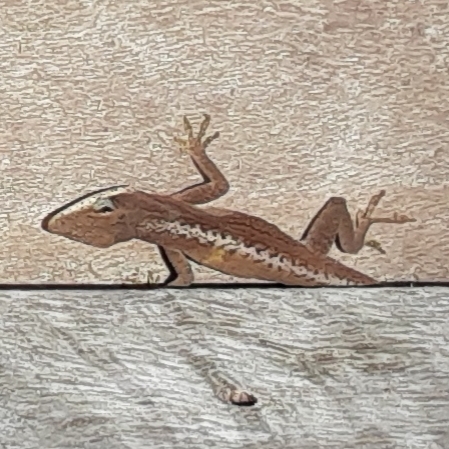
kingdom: Animalia
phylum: Chordata
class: Squamata
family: Dactyloidae
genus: Anolis
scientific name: Anolis carolinensis
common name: Green anole
